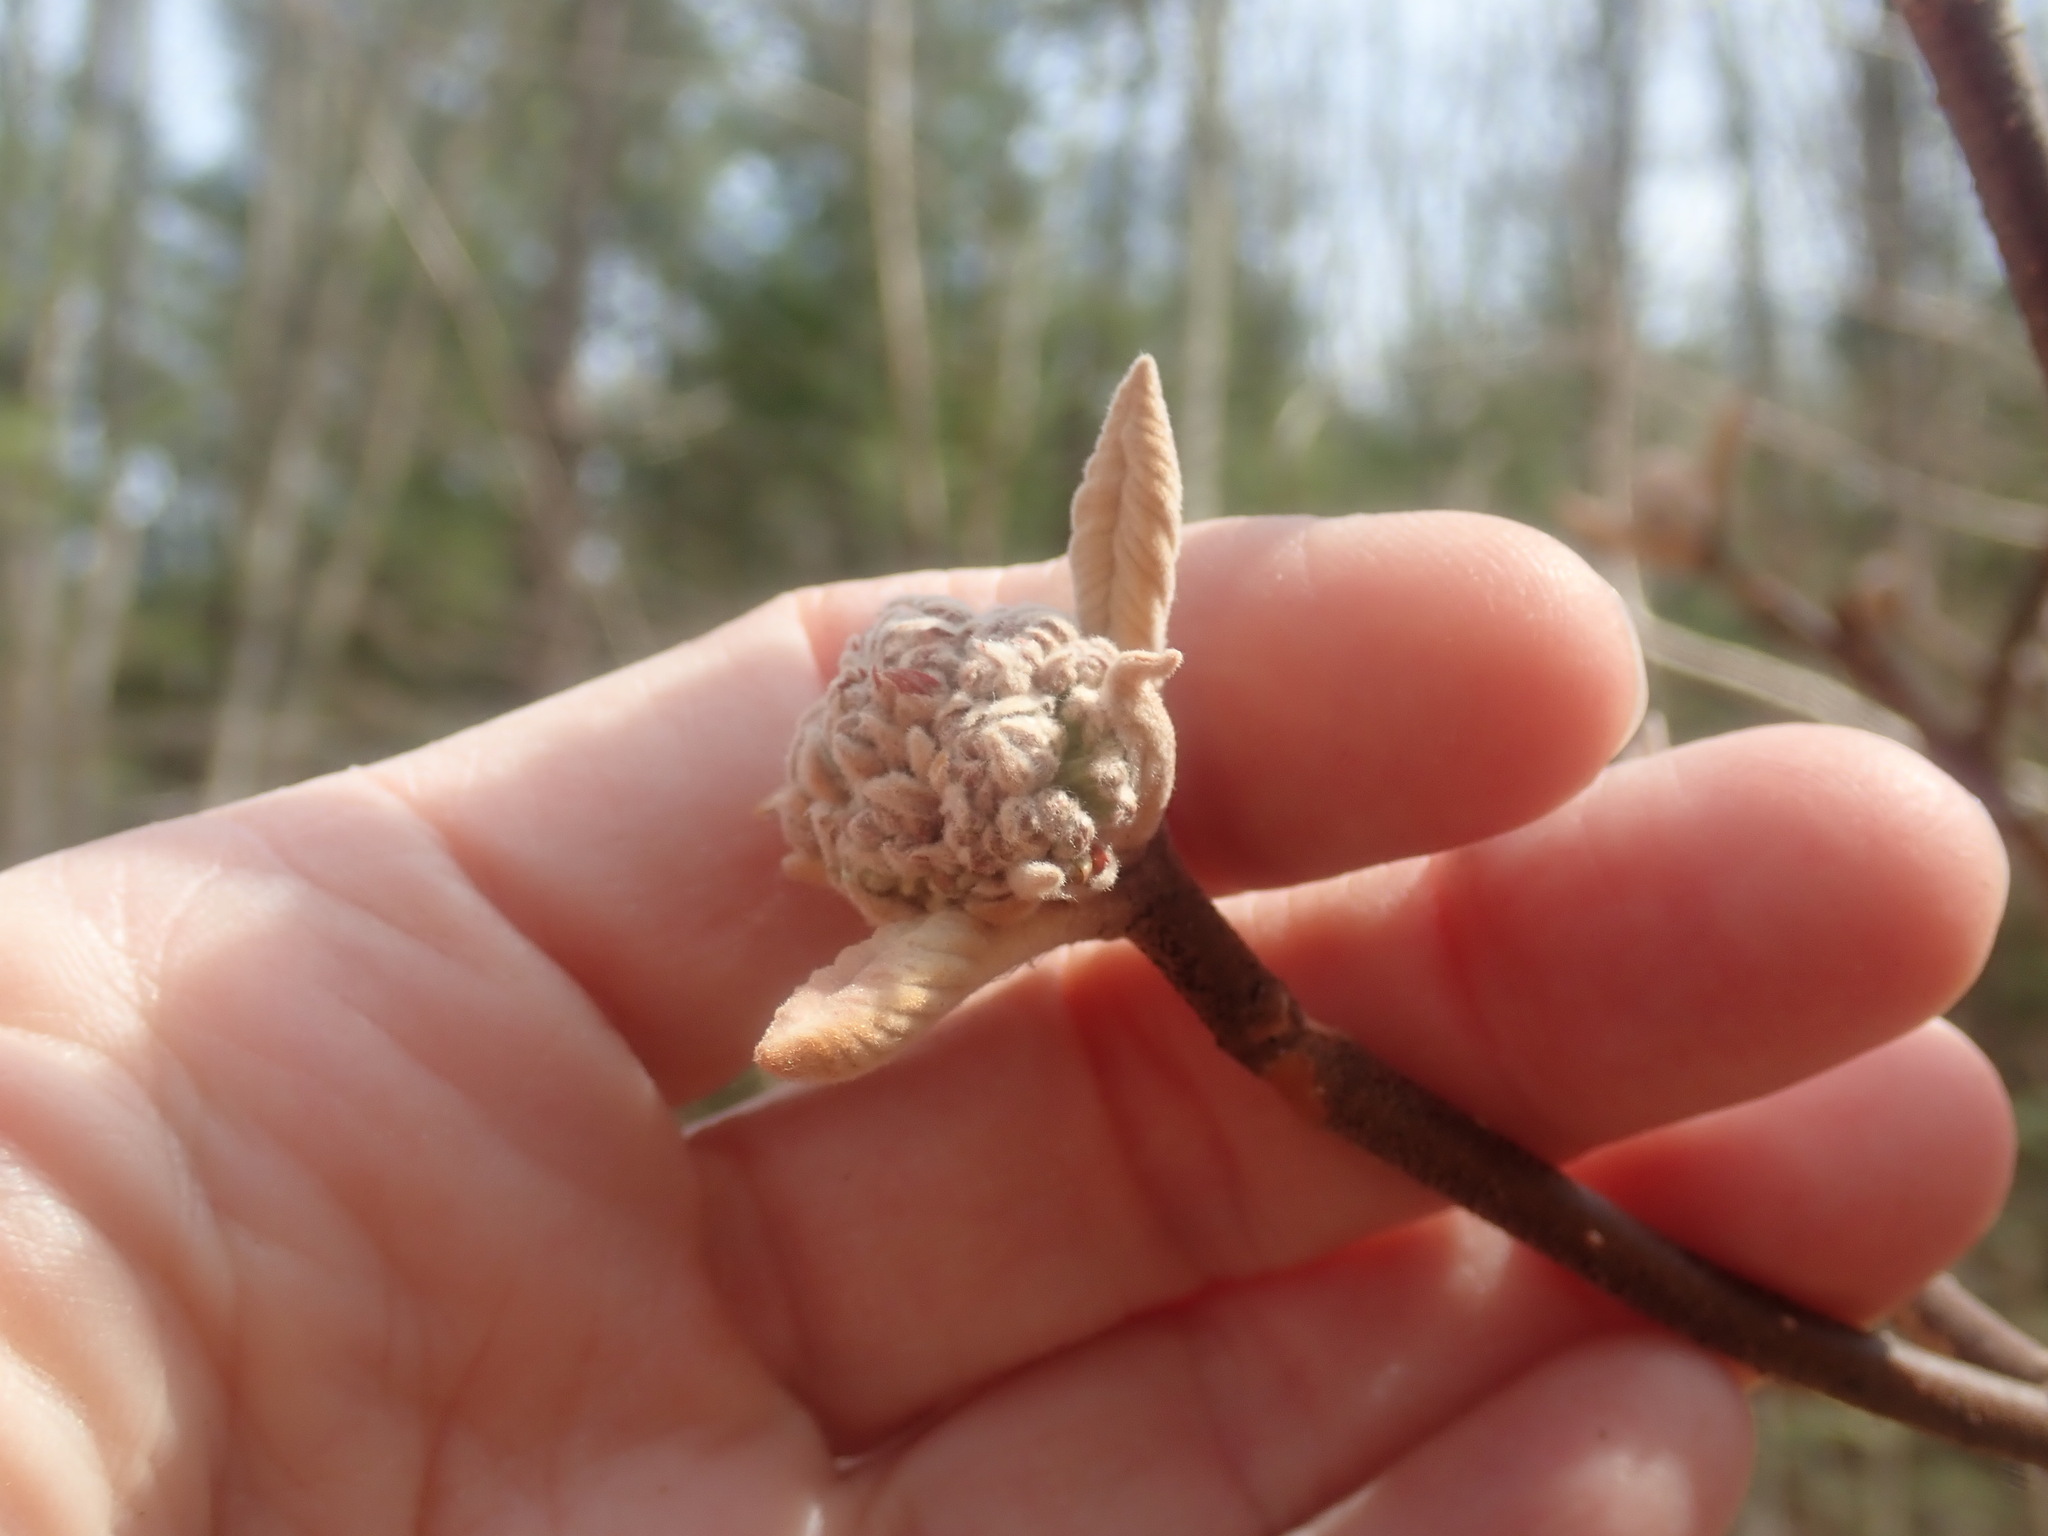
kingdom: Plantae
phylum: Tracheophyta
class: Magnoliopsida
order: Dipsacales
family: Viburnaceae
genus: Viburnum
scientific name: Viburnum lantanoides
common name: Hobblebush
